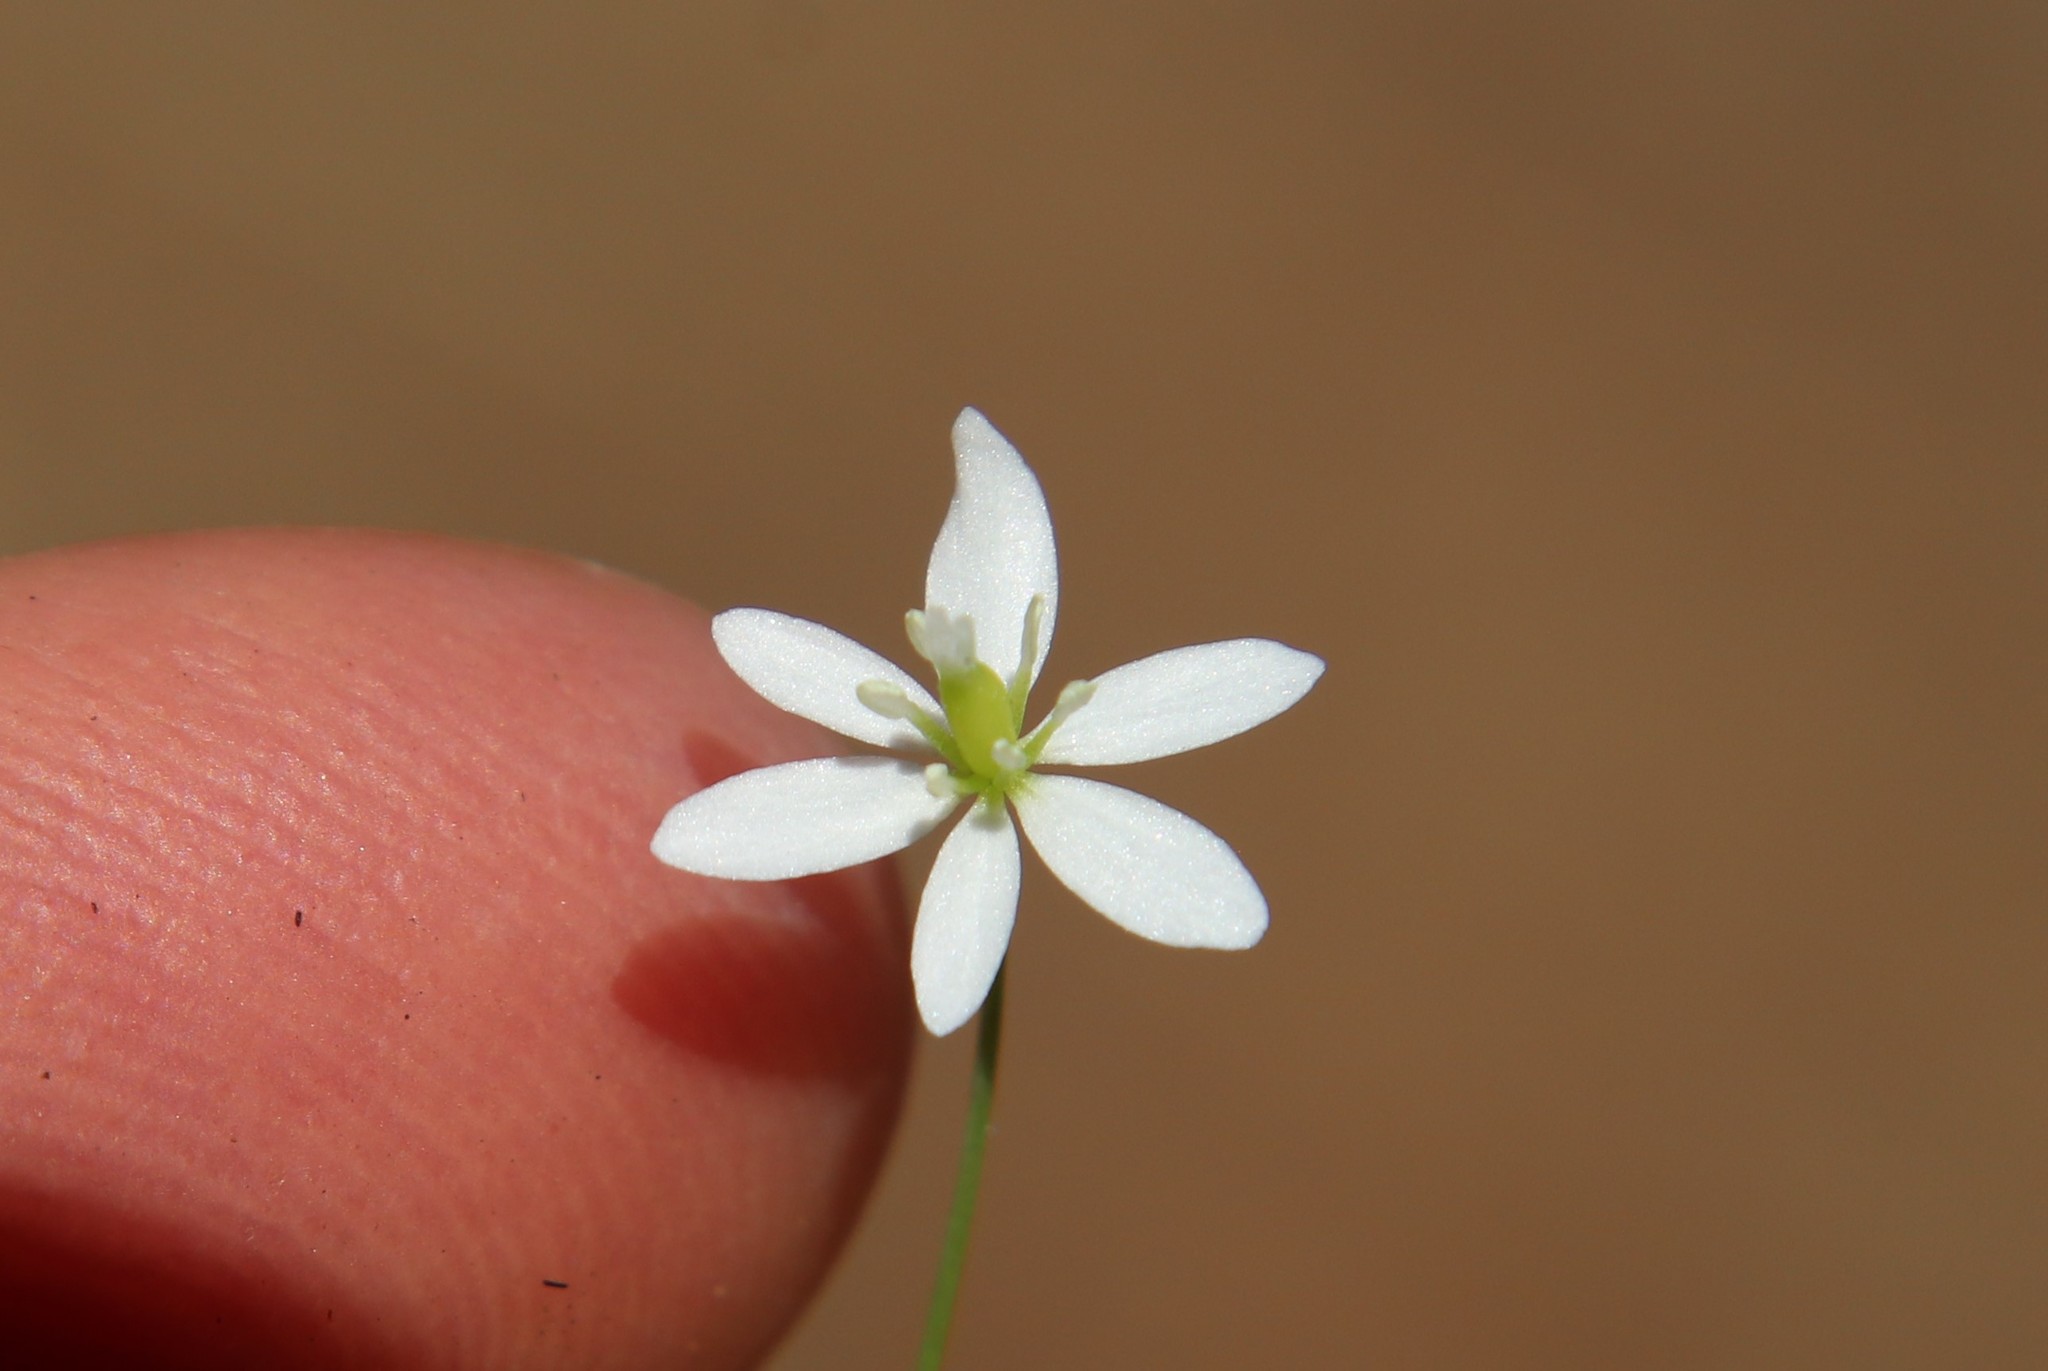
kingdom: Plantae
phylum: Tracheophyta
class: Magnoliopsida
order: Ranunculales
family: Papaveraceae
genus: Meconella
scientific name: Meconella denticulata
